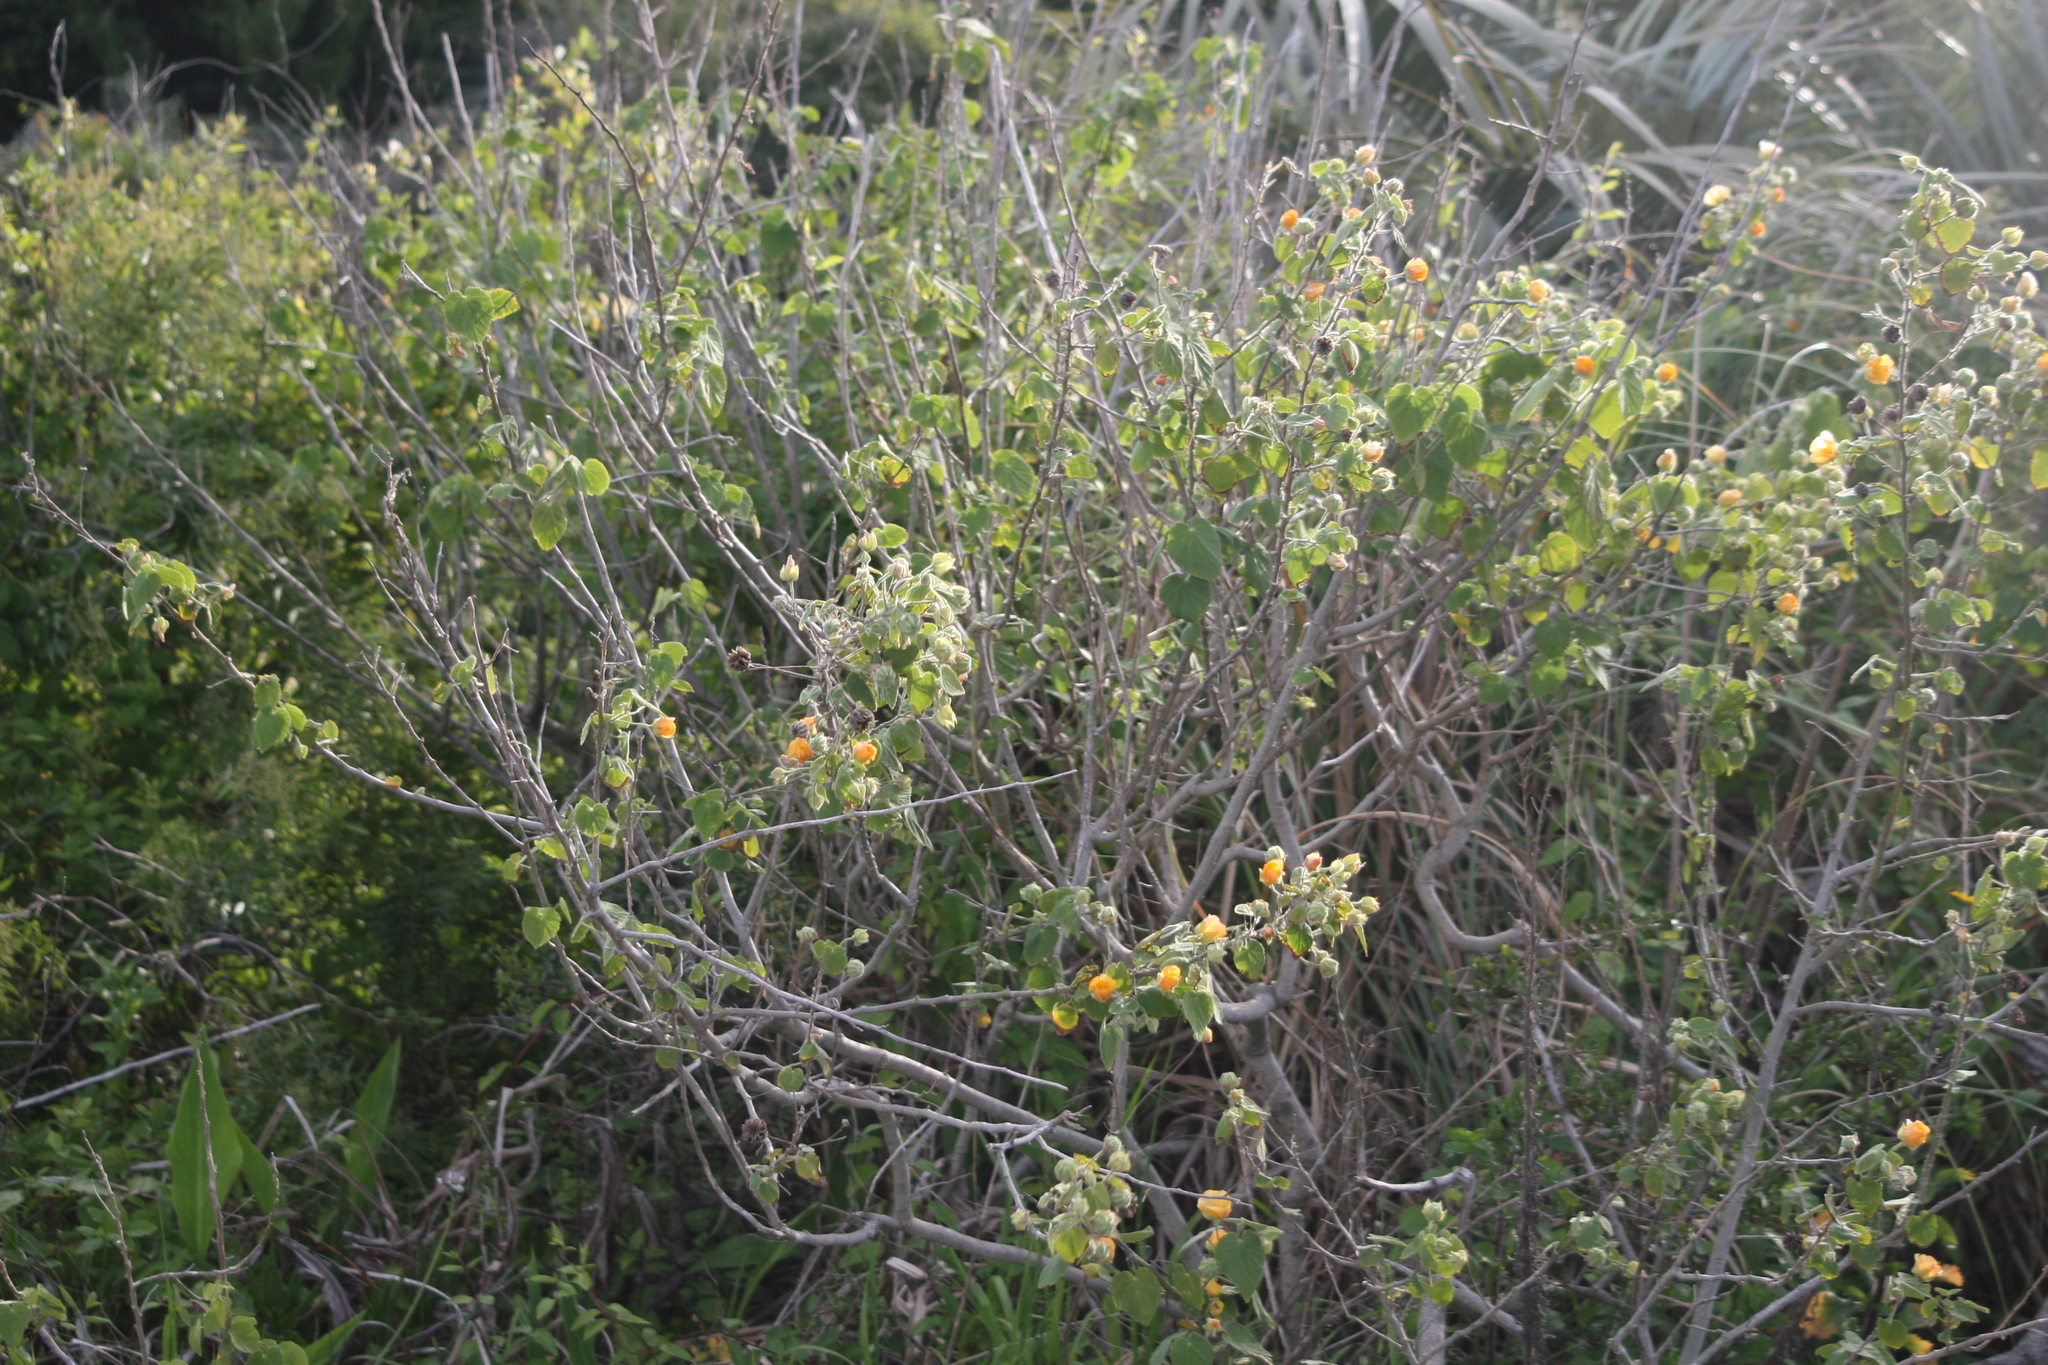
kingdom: Plantae
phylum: Tracheophyta
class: Magnoliopsida
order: Malvales
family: Malvaceae
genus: Abutilon
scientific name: Abutilon grandifolium
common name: Hairy abutilon
